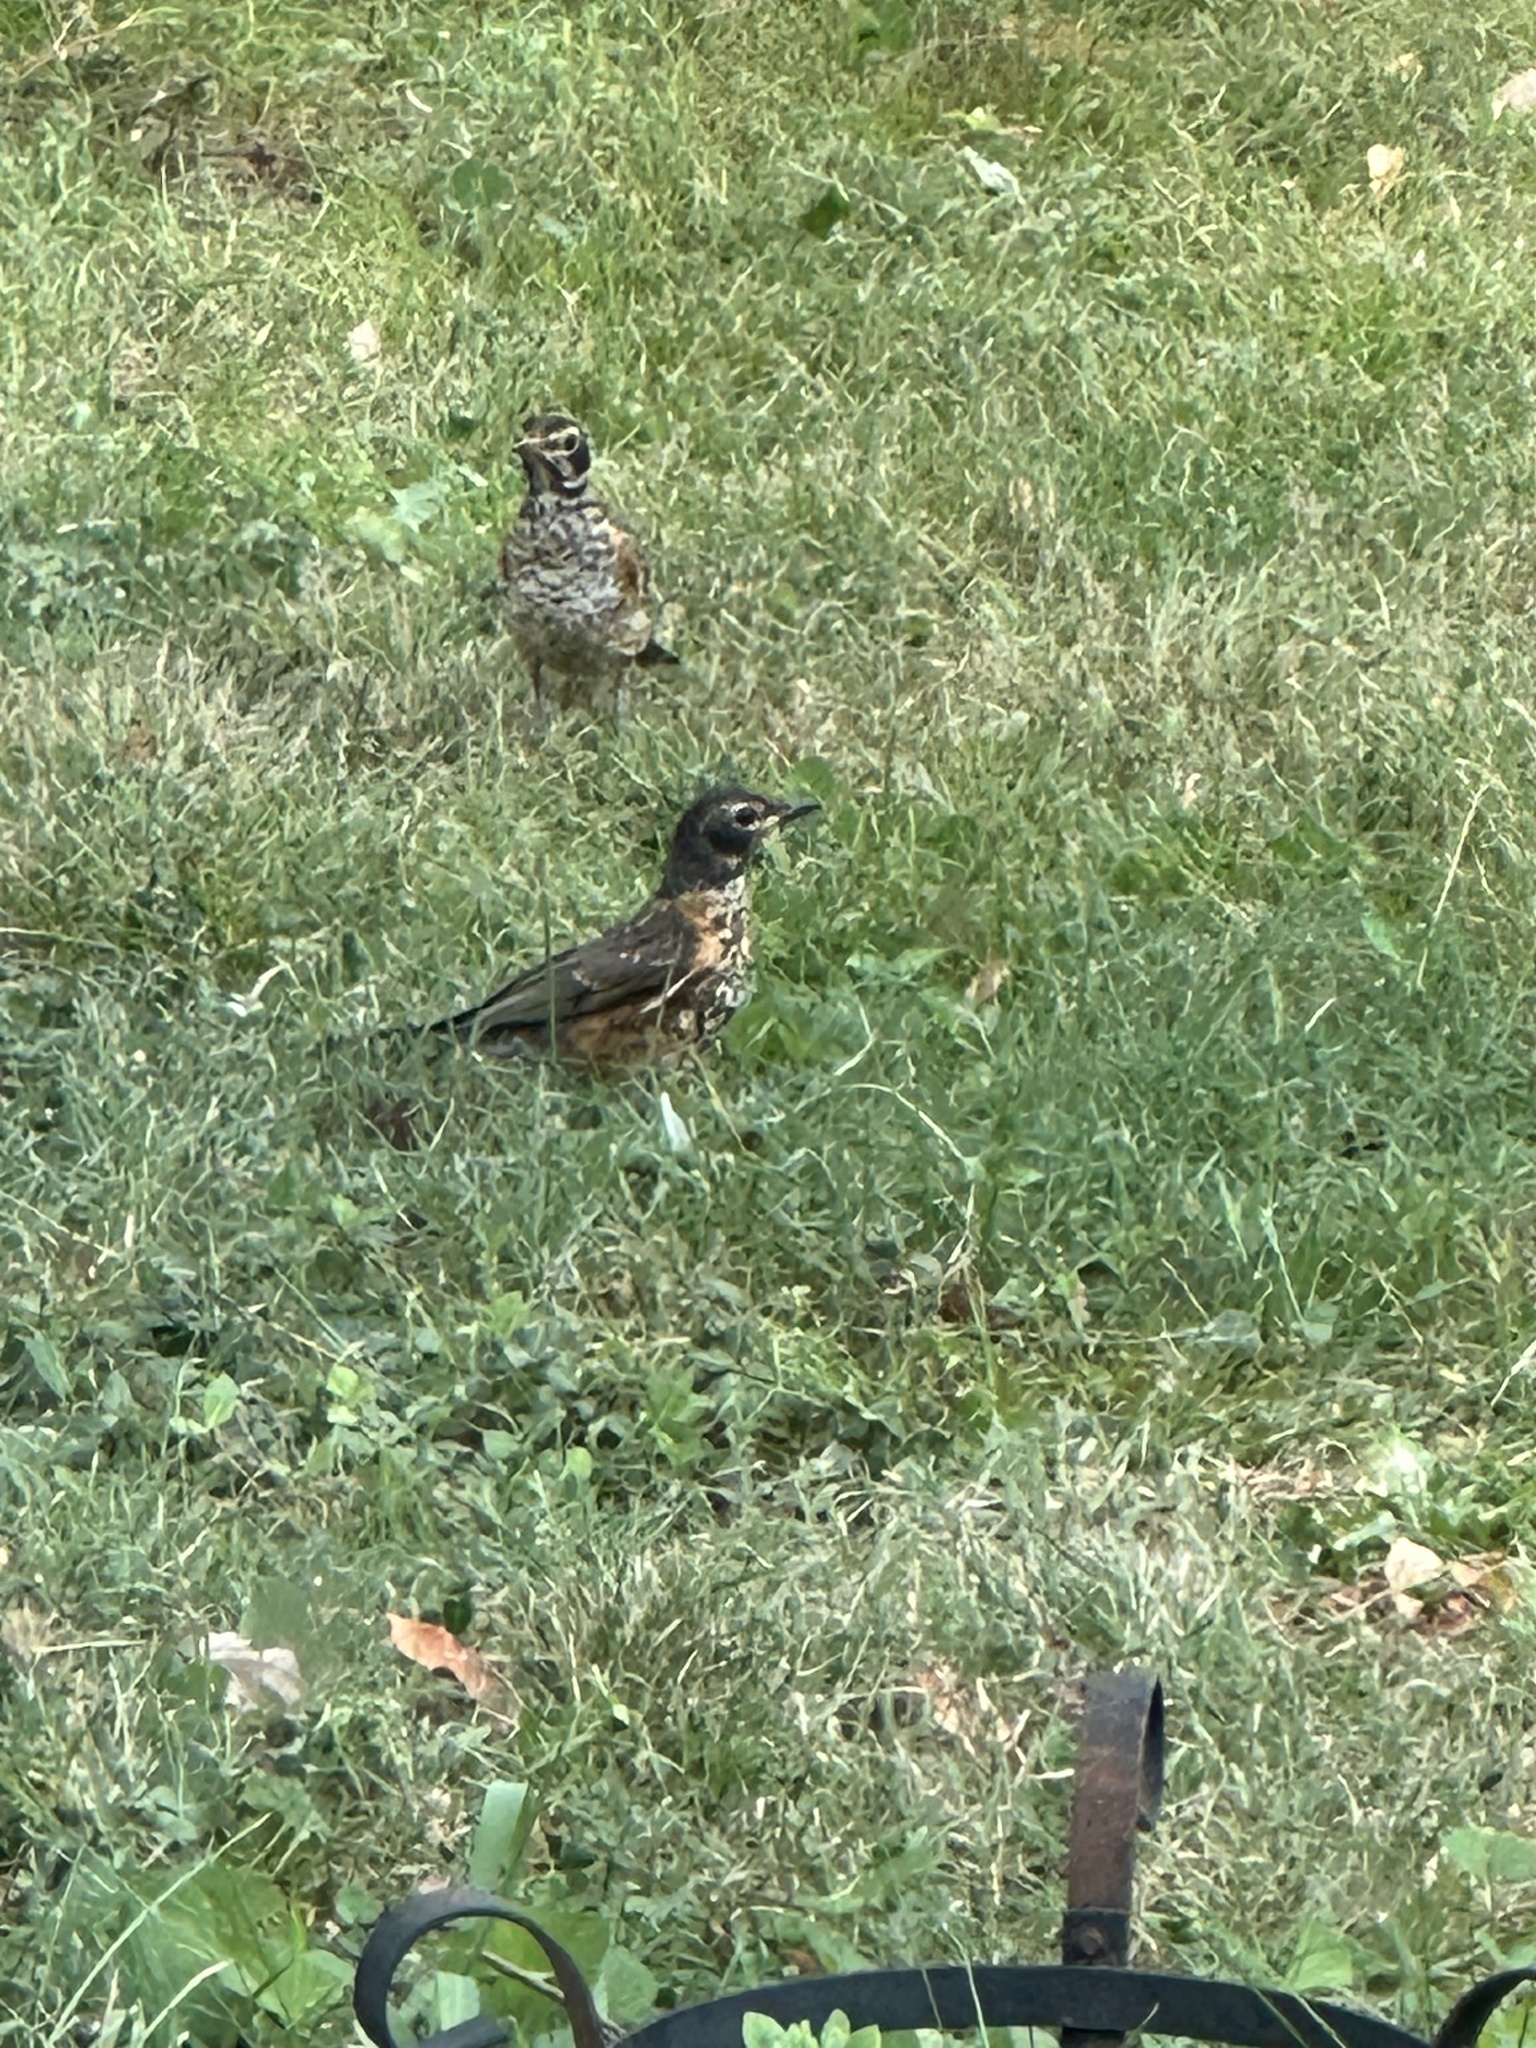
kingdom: Animalia
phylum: Chordata
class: Aves
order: Passeriformes
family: Turdidae
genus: Turdus
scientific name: Turdus migratorius
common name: American robin
